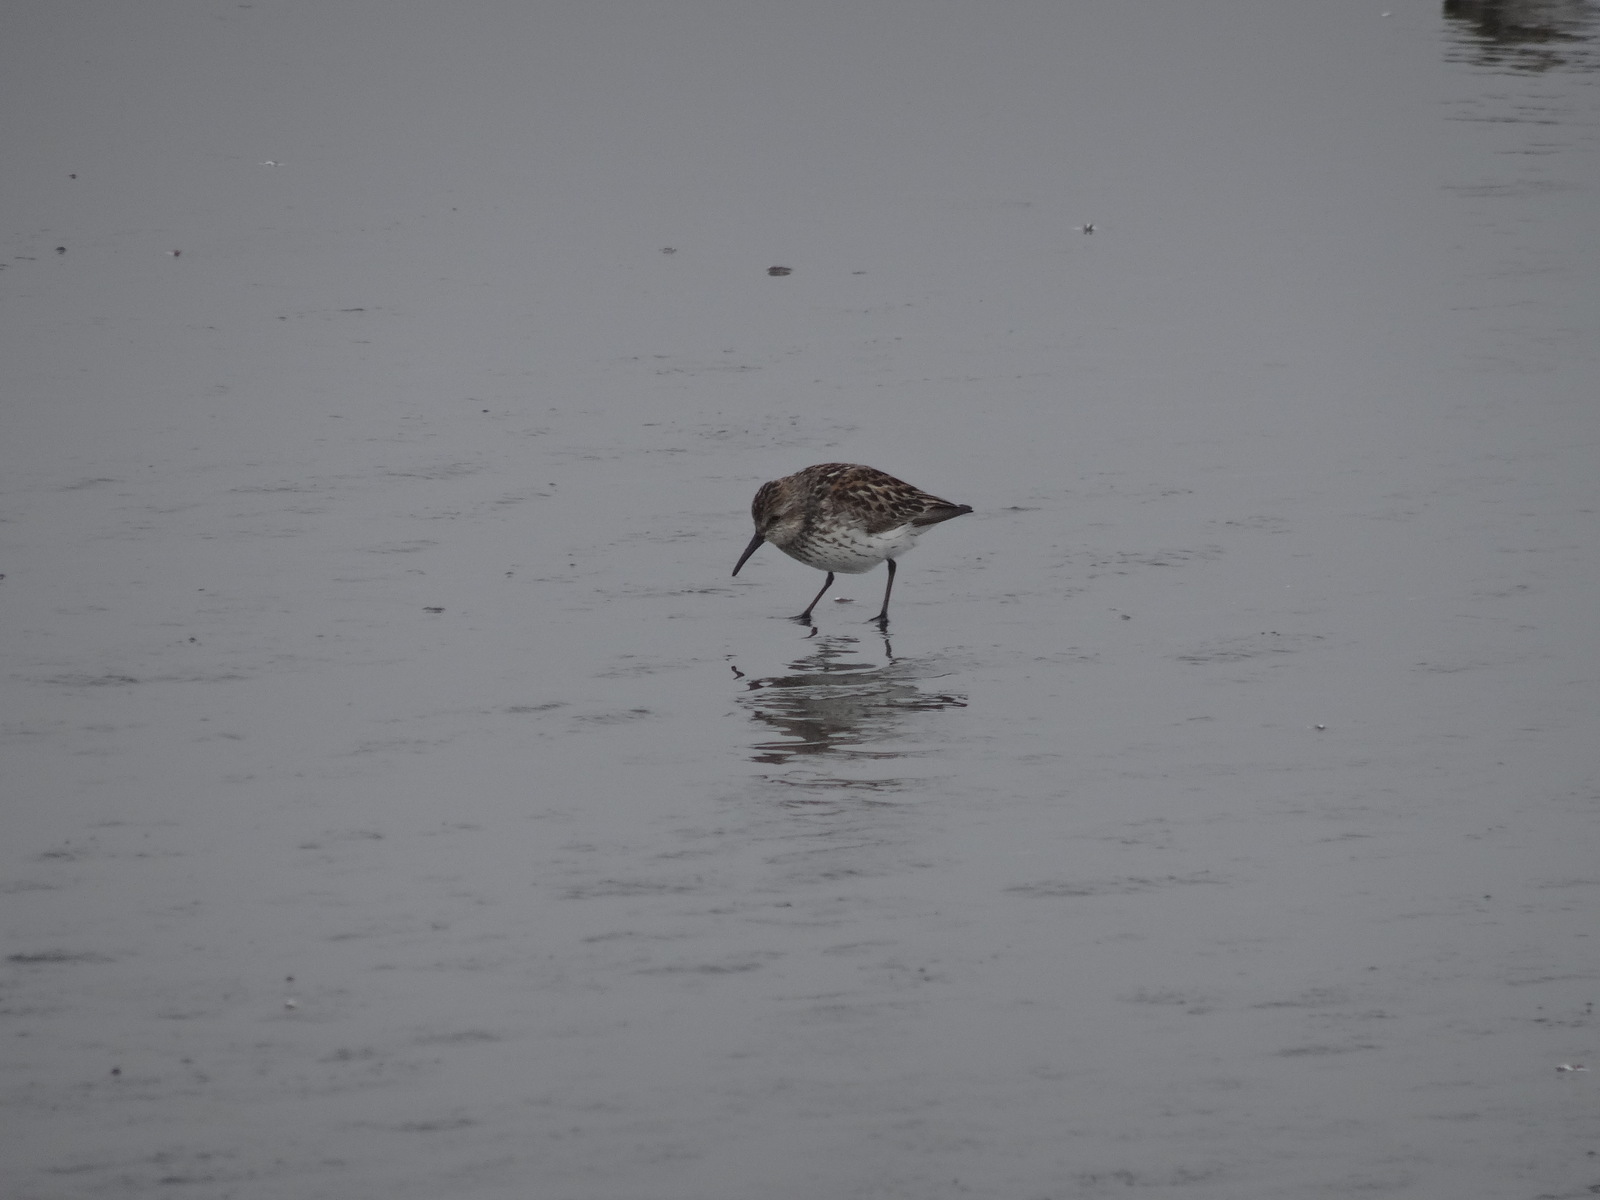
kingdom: Animalia
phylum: Chordata
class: Aves
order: Charadriiformes
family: Scolopacidae
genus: Calidris
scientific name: Calidris mauri
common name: Western sandpiper
